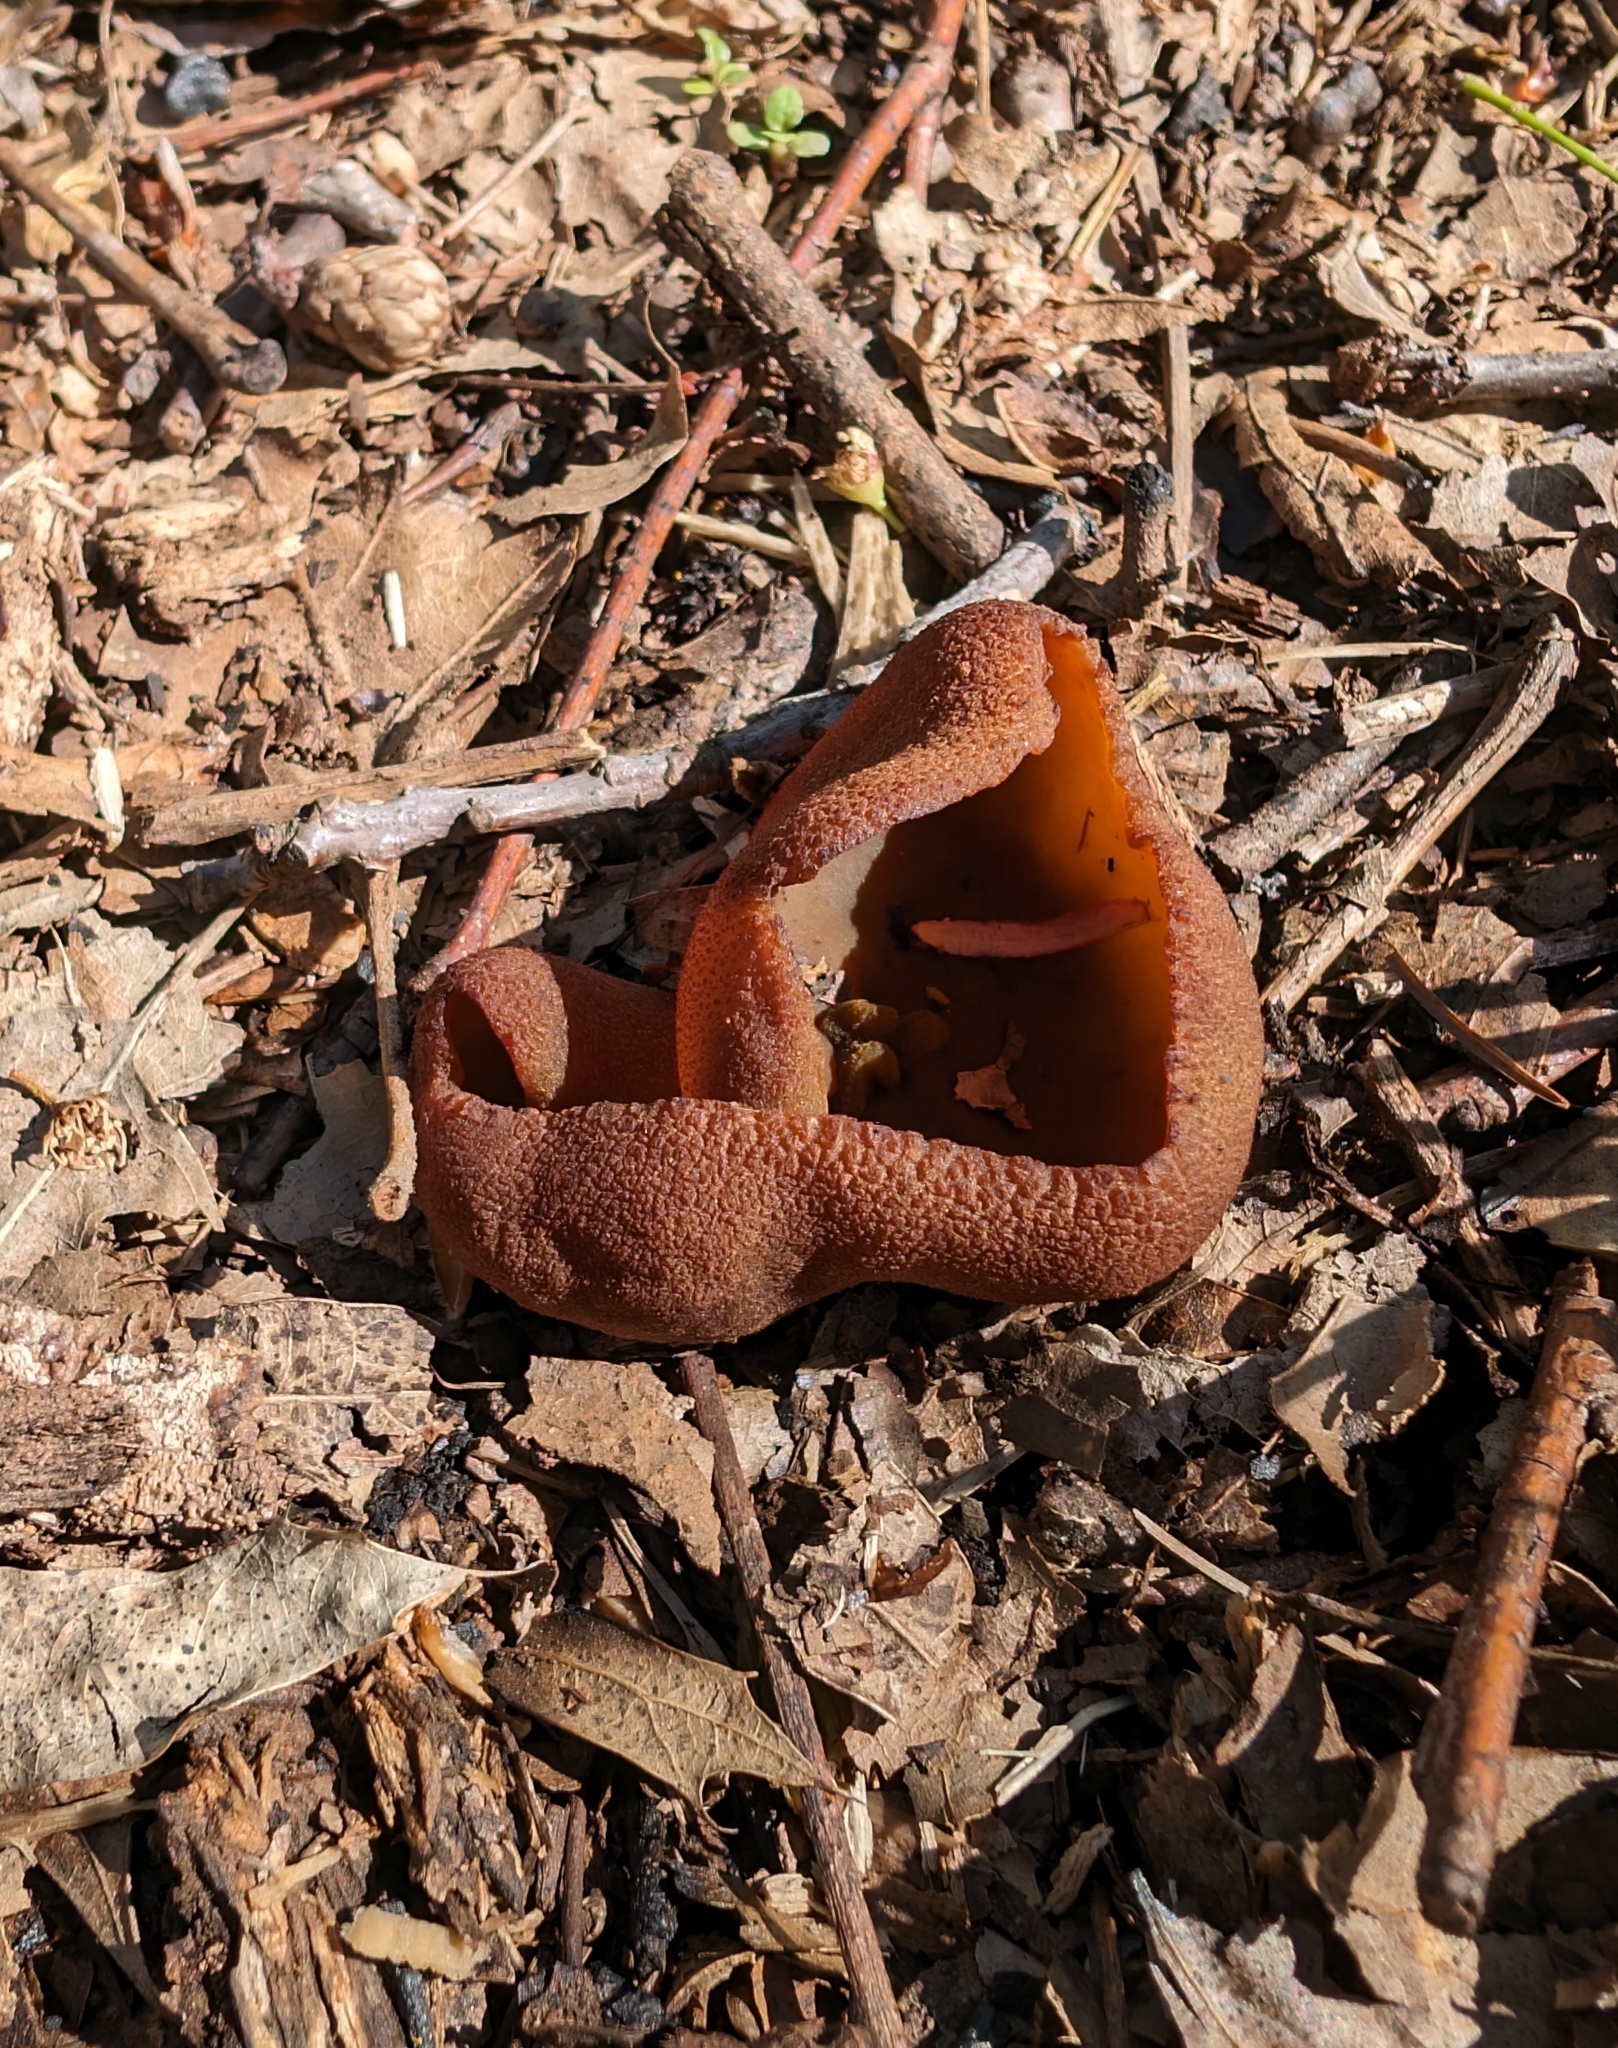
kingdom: Fungi
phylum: Ascomycota
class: Pezizomycetes
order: Pezizales
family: Pezizaceae
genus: Phylloscypha
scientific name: Phylloscypha phyllogena
